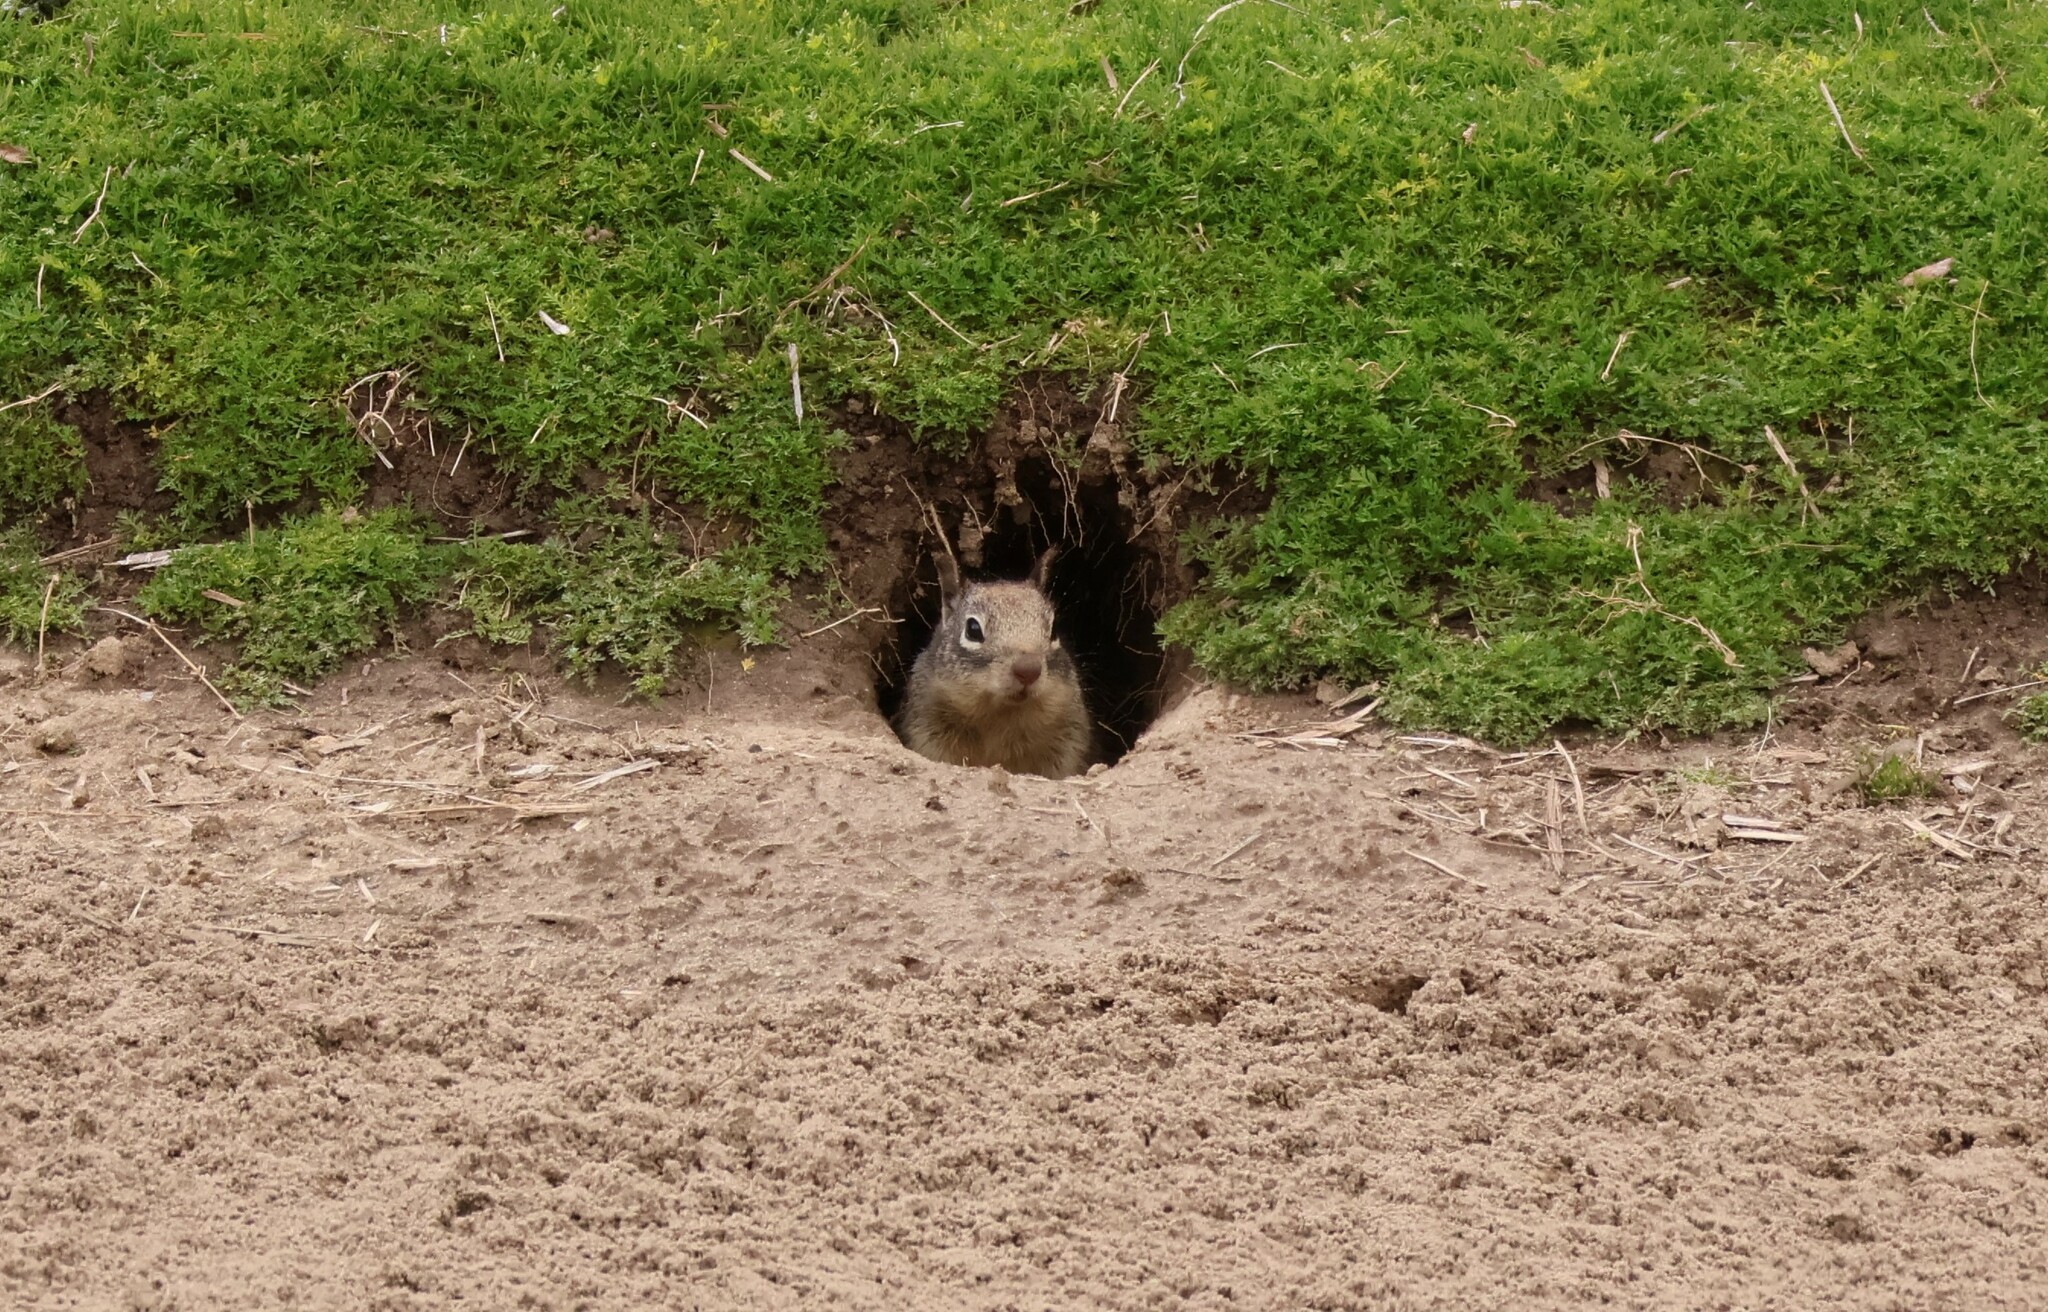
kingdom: Animalia
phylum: Chordata
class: Mammalia
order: Rodentia
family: Sciuridae
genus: Otospermophilus
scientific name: Otospermophilus beecheyi
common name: California ground squirrel
